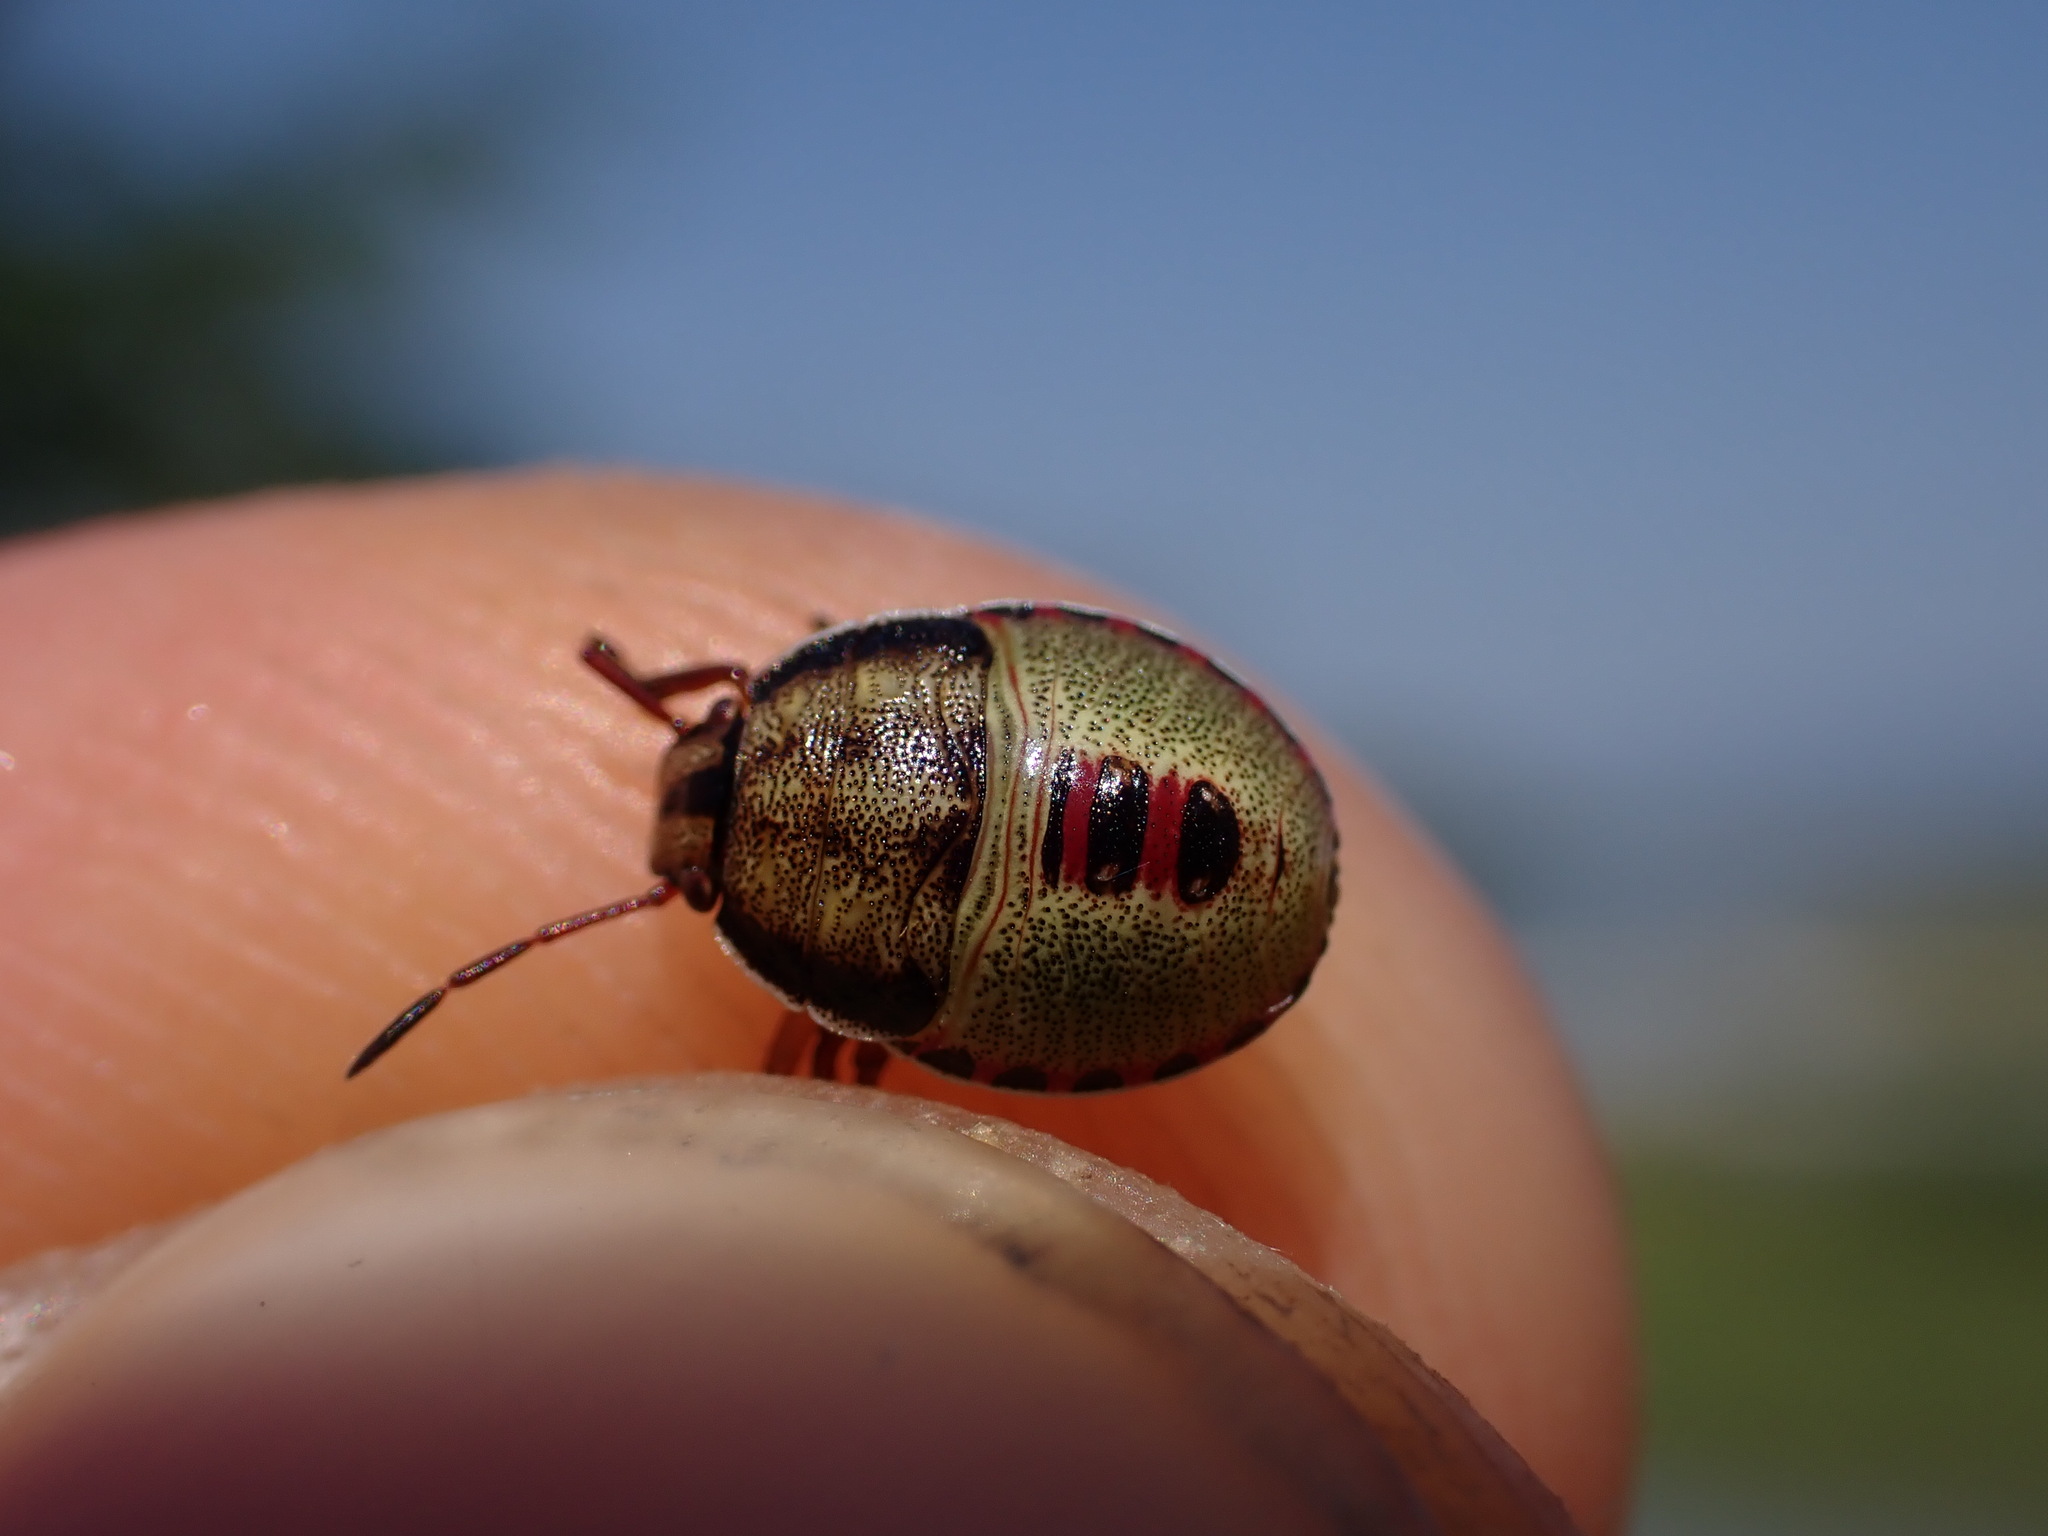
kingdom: Animalia
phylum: Arthropoda
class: Insecta
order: Hemiptera
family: Pentatomidae
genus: Piezodorus
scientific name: Piezodorus lituratus
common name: Stink bug
